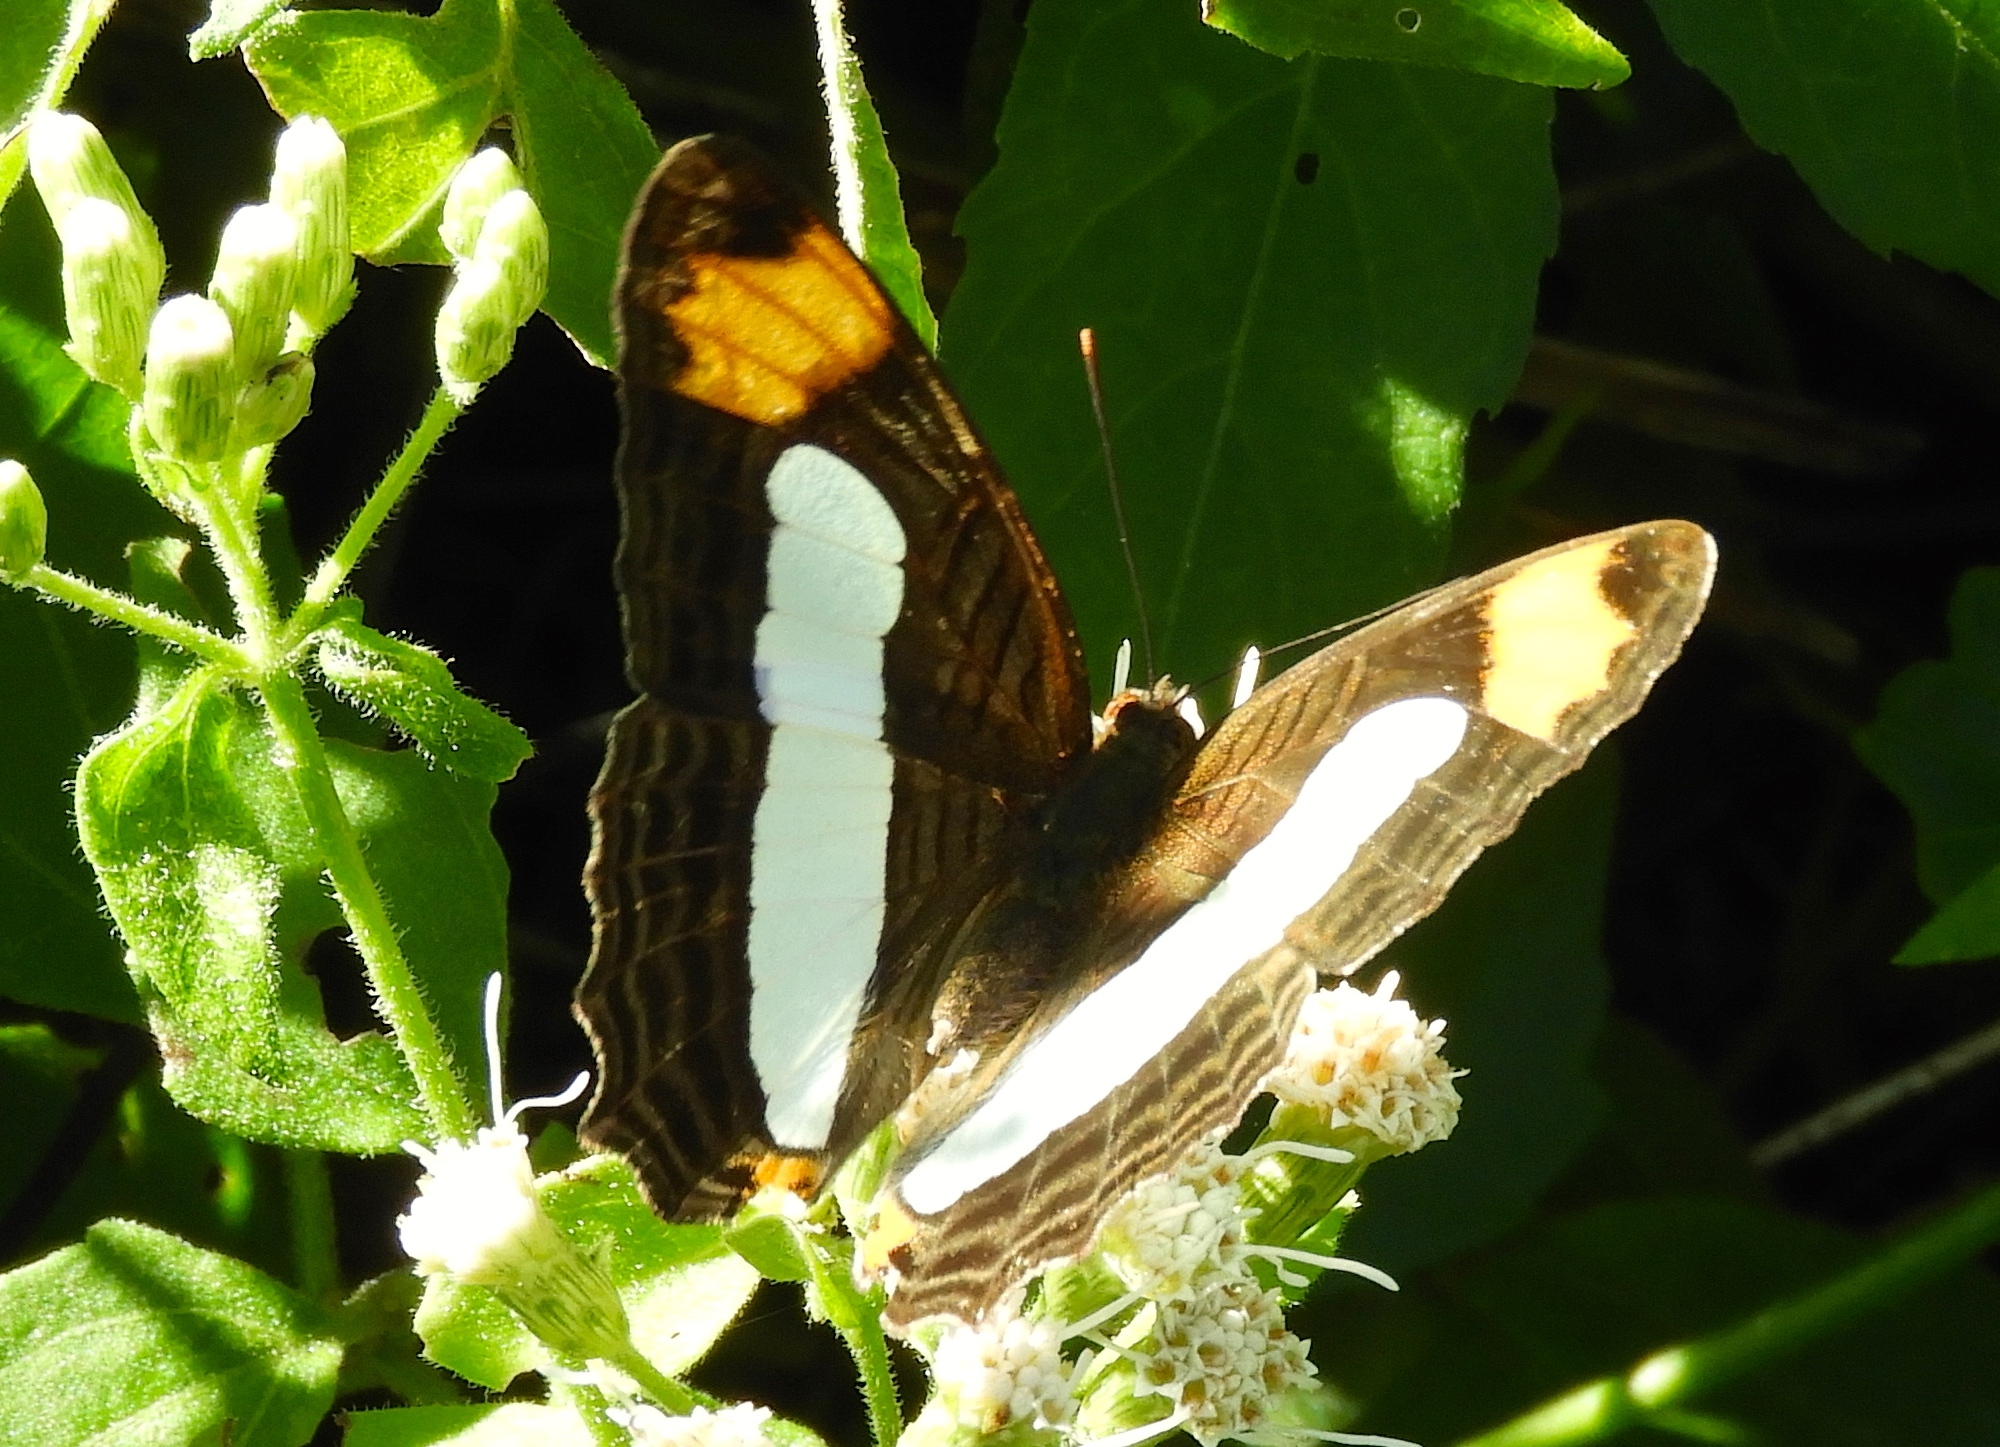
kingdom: Animalia
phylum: Arthropoda
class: Insecta
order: Lepidoptera
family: Nymphalidae
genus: Limenitis
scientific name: Limenitis iphiclus
